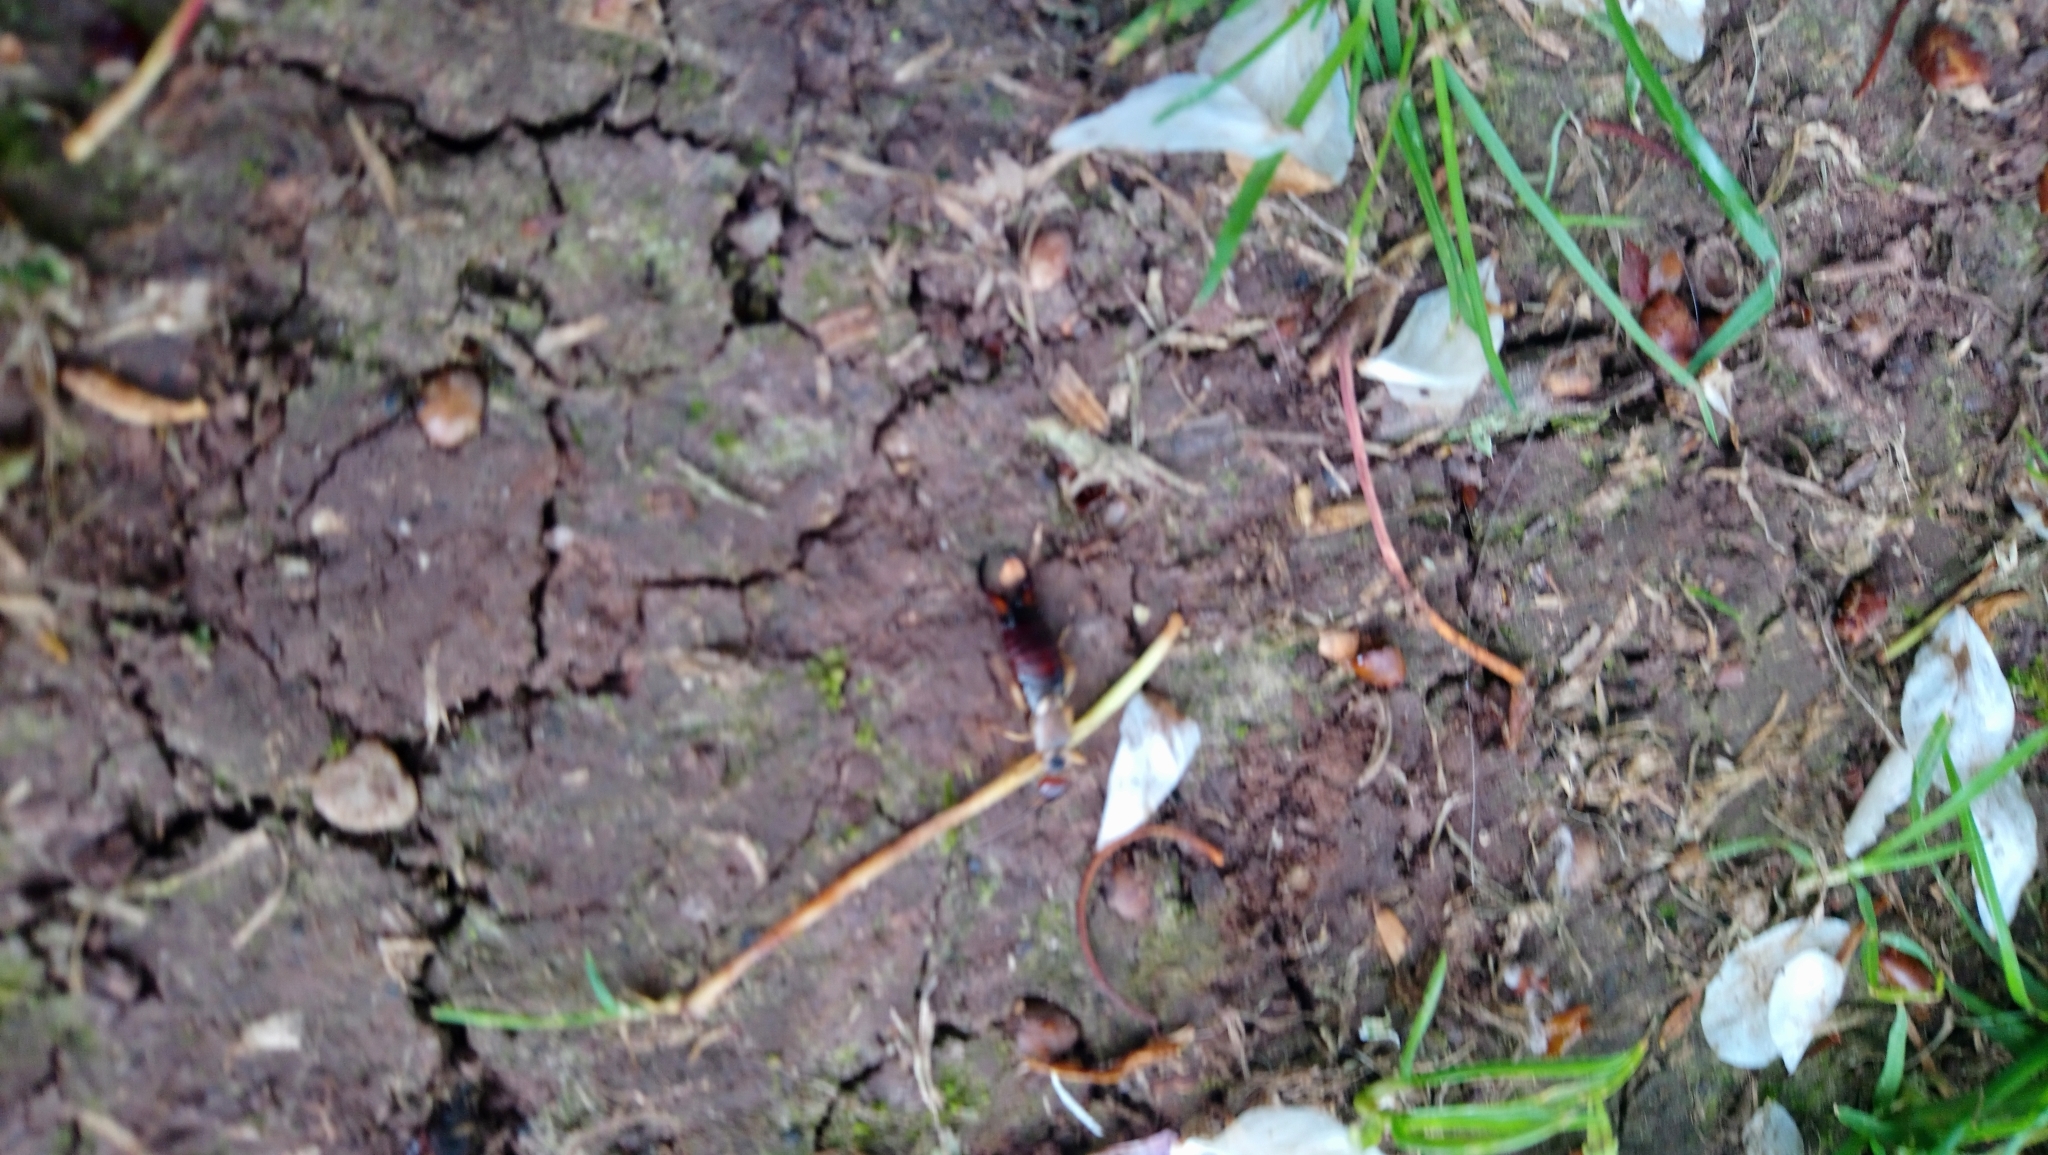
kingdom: Animalia
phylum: Arthropoda
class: Insecta
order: Dermaptera
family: Forficulidae
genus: Forficula
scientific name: Forficula
